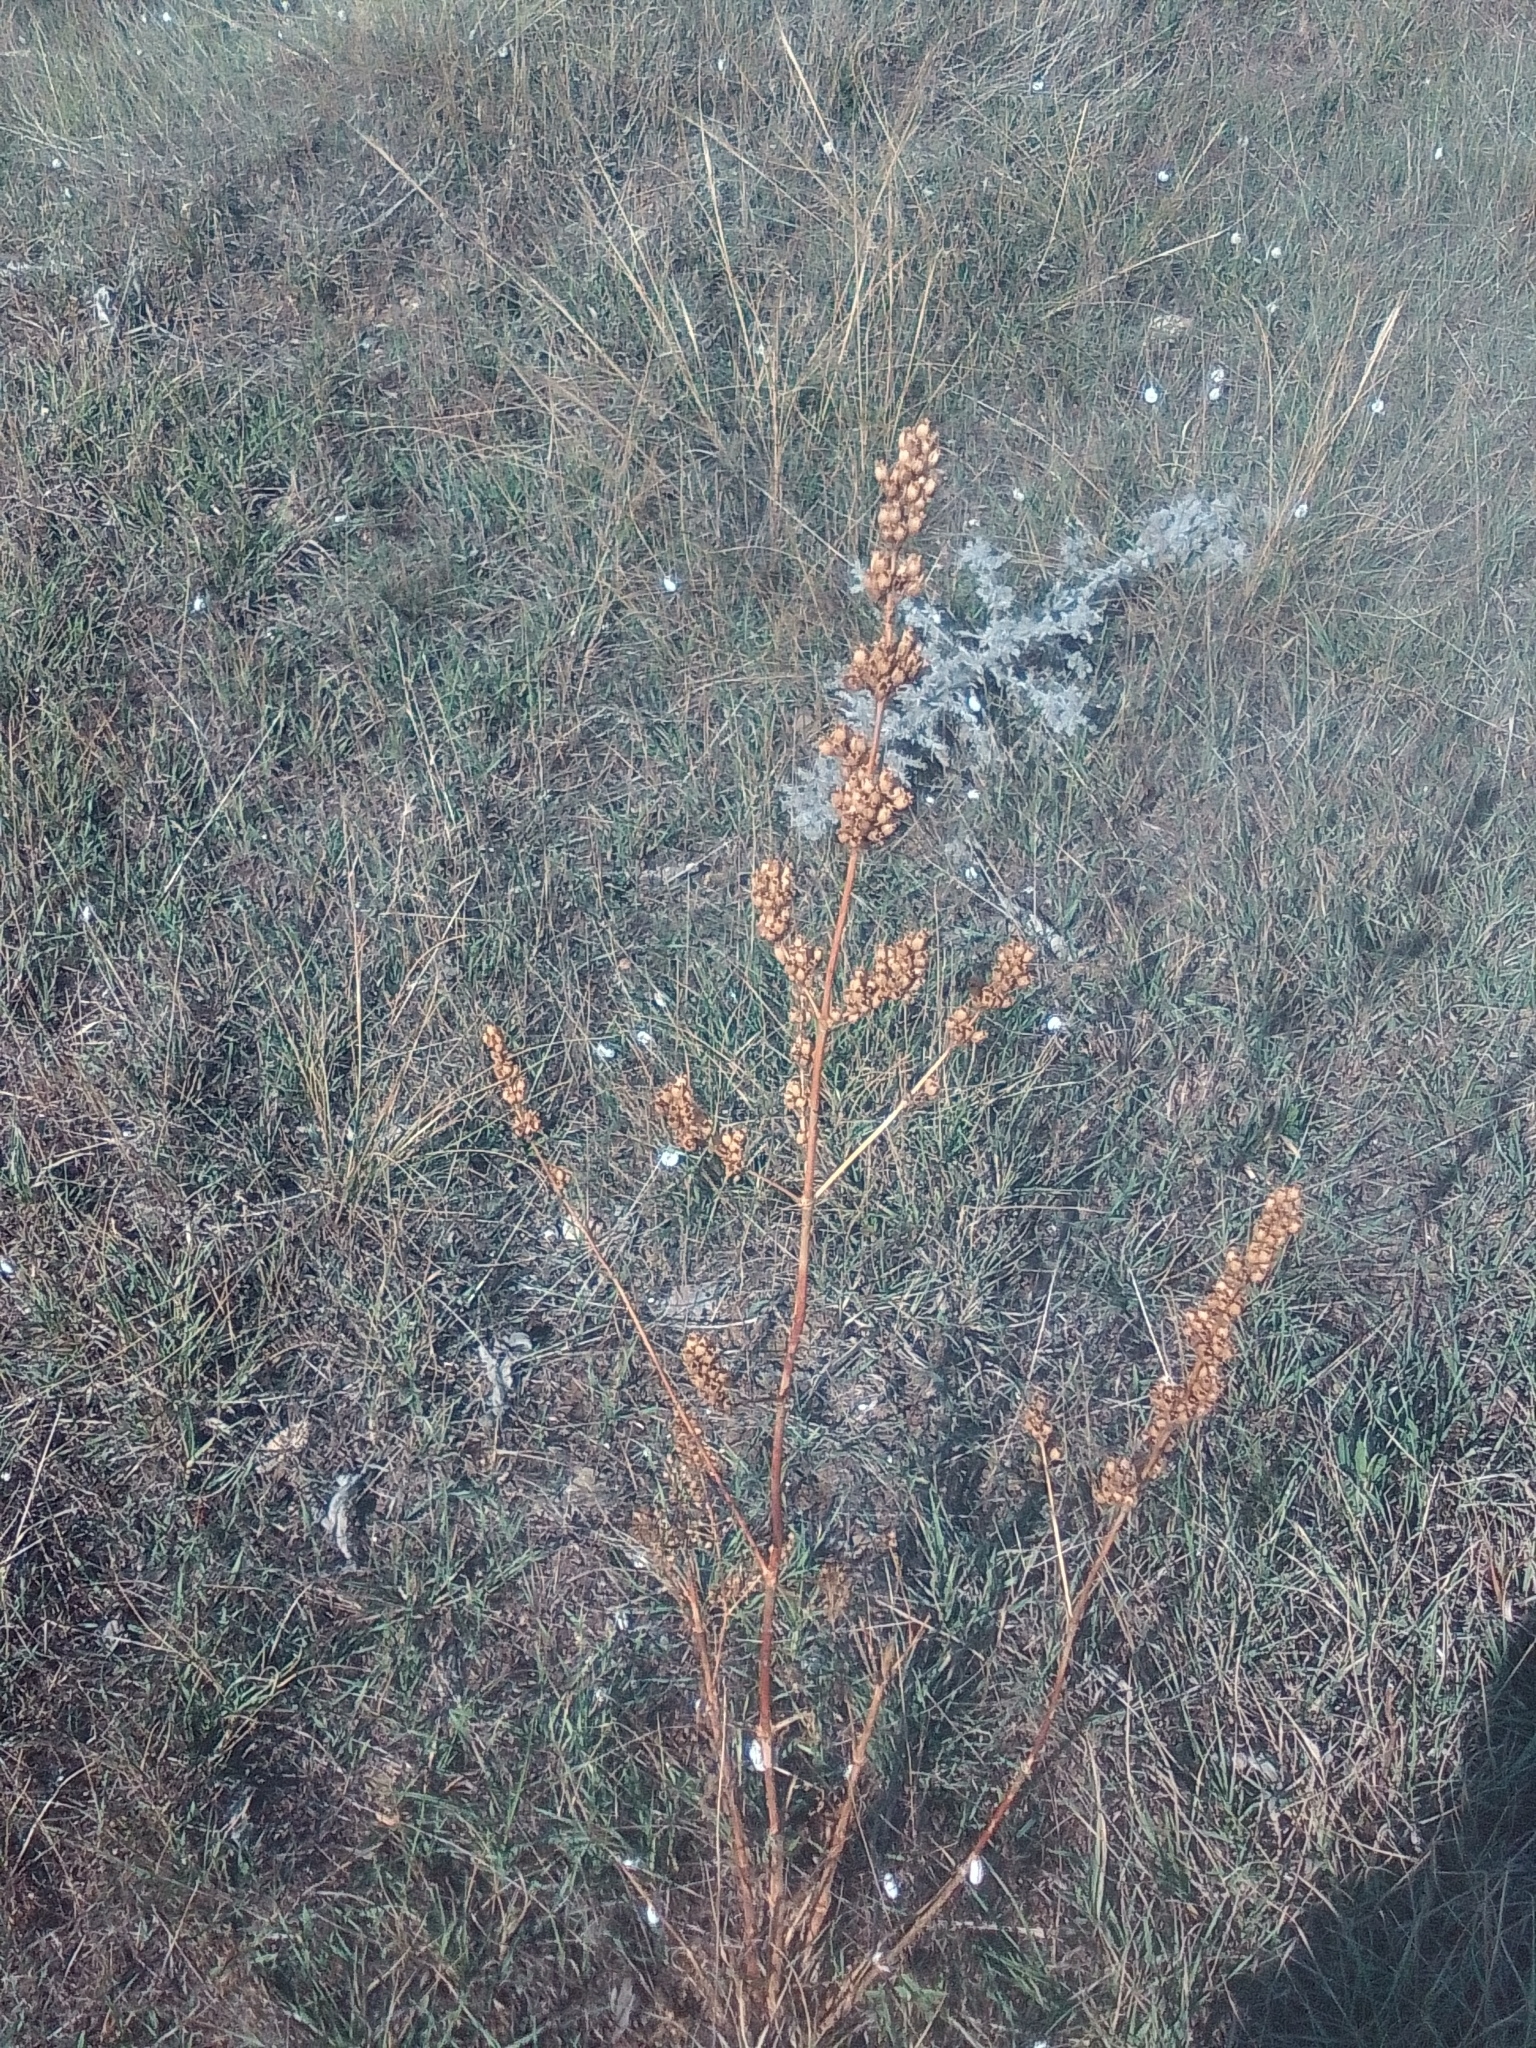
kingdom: Plantae
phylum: Tracheophyta
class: Magnoliopsida
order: Caryophyllales
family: Caryophyllaceae
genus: Silene
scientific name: Silene densiflora
